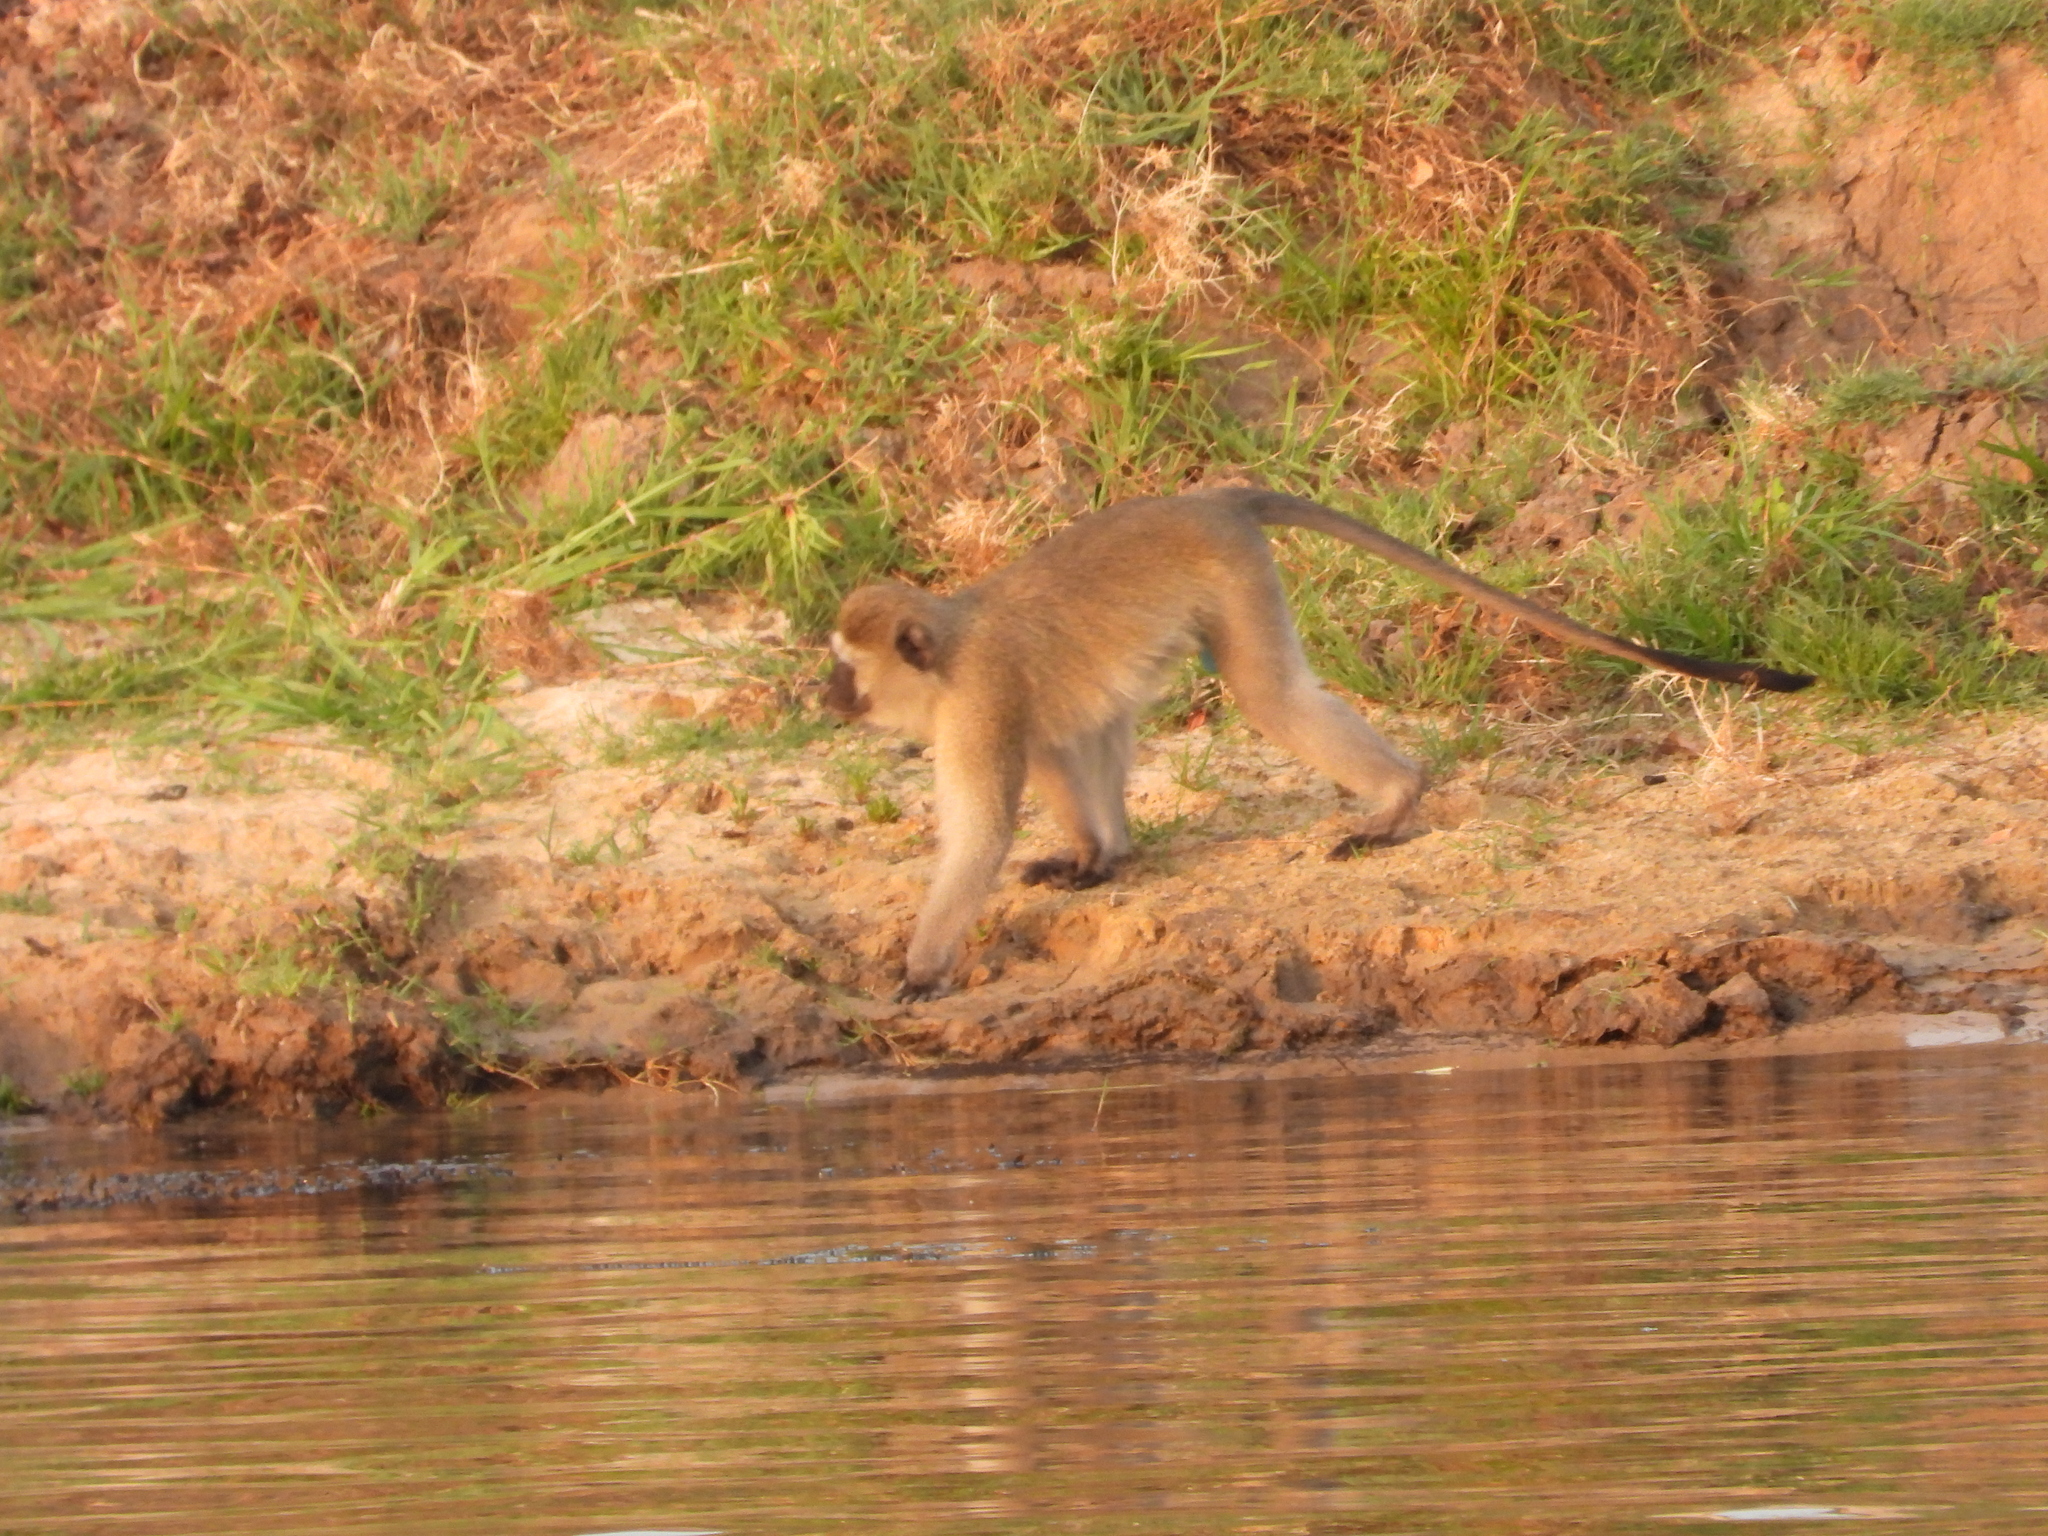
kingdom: Animalia
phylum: Chordata
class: Mammalia
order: Primates
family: Cercopithecidae
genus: Chlorocebus
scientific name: Chlorocebus cynosuros
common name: Malbrouck
